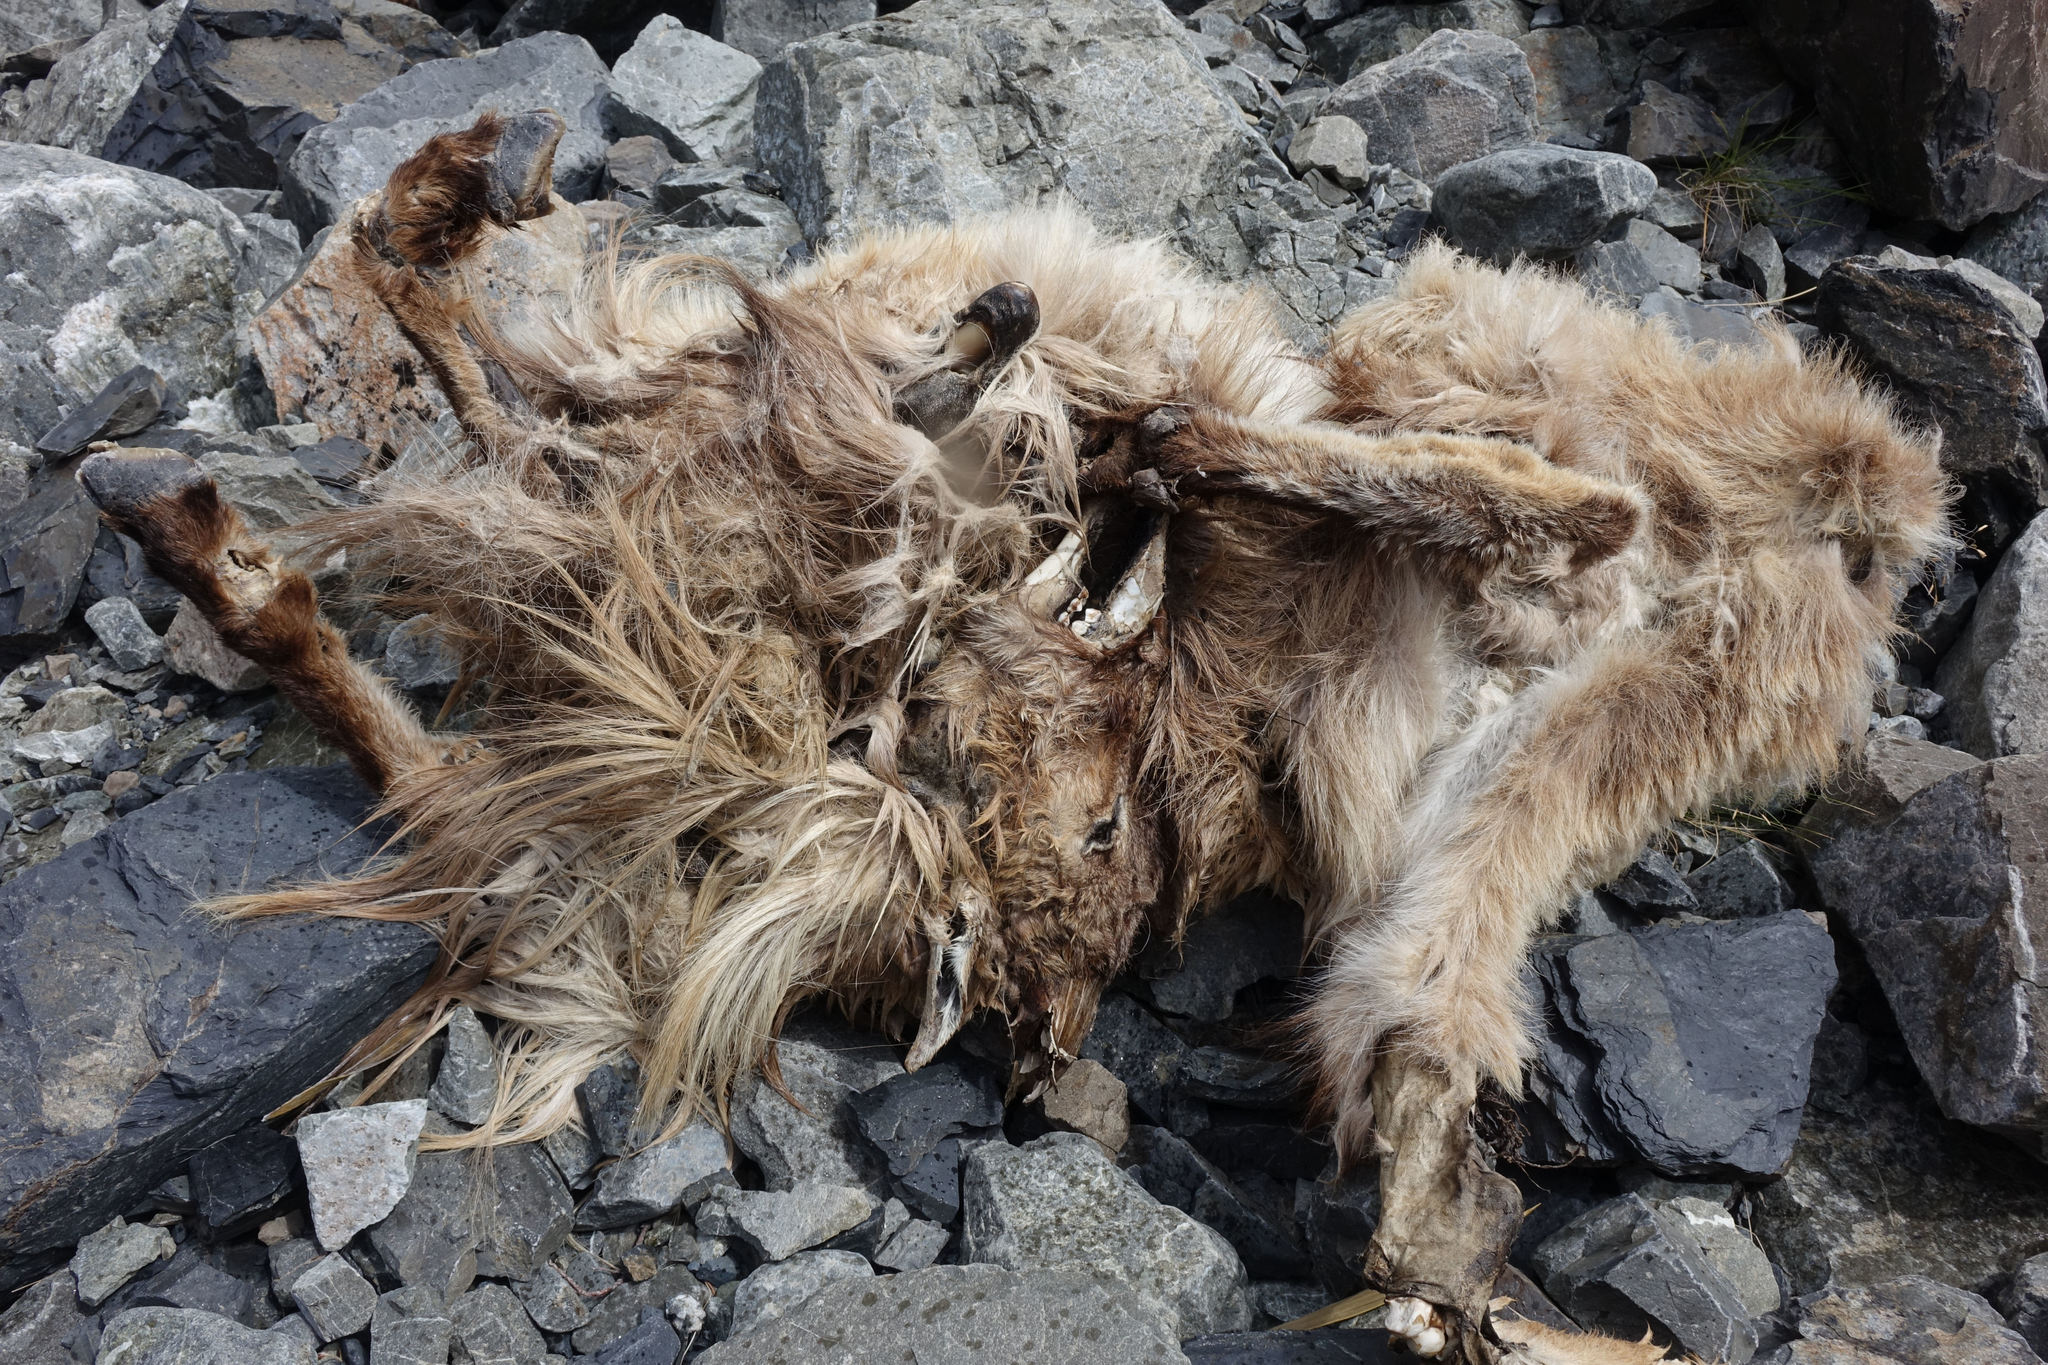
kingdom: Animalia
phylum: Chordata
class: Mammalia
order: Artiodactyla
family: Bovidae
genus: Hemitragus
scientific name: Hemitragus jemlahicus
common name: Himalayan tahr
